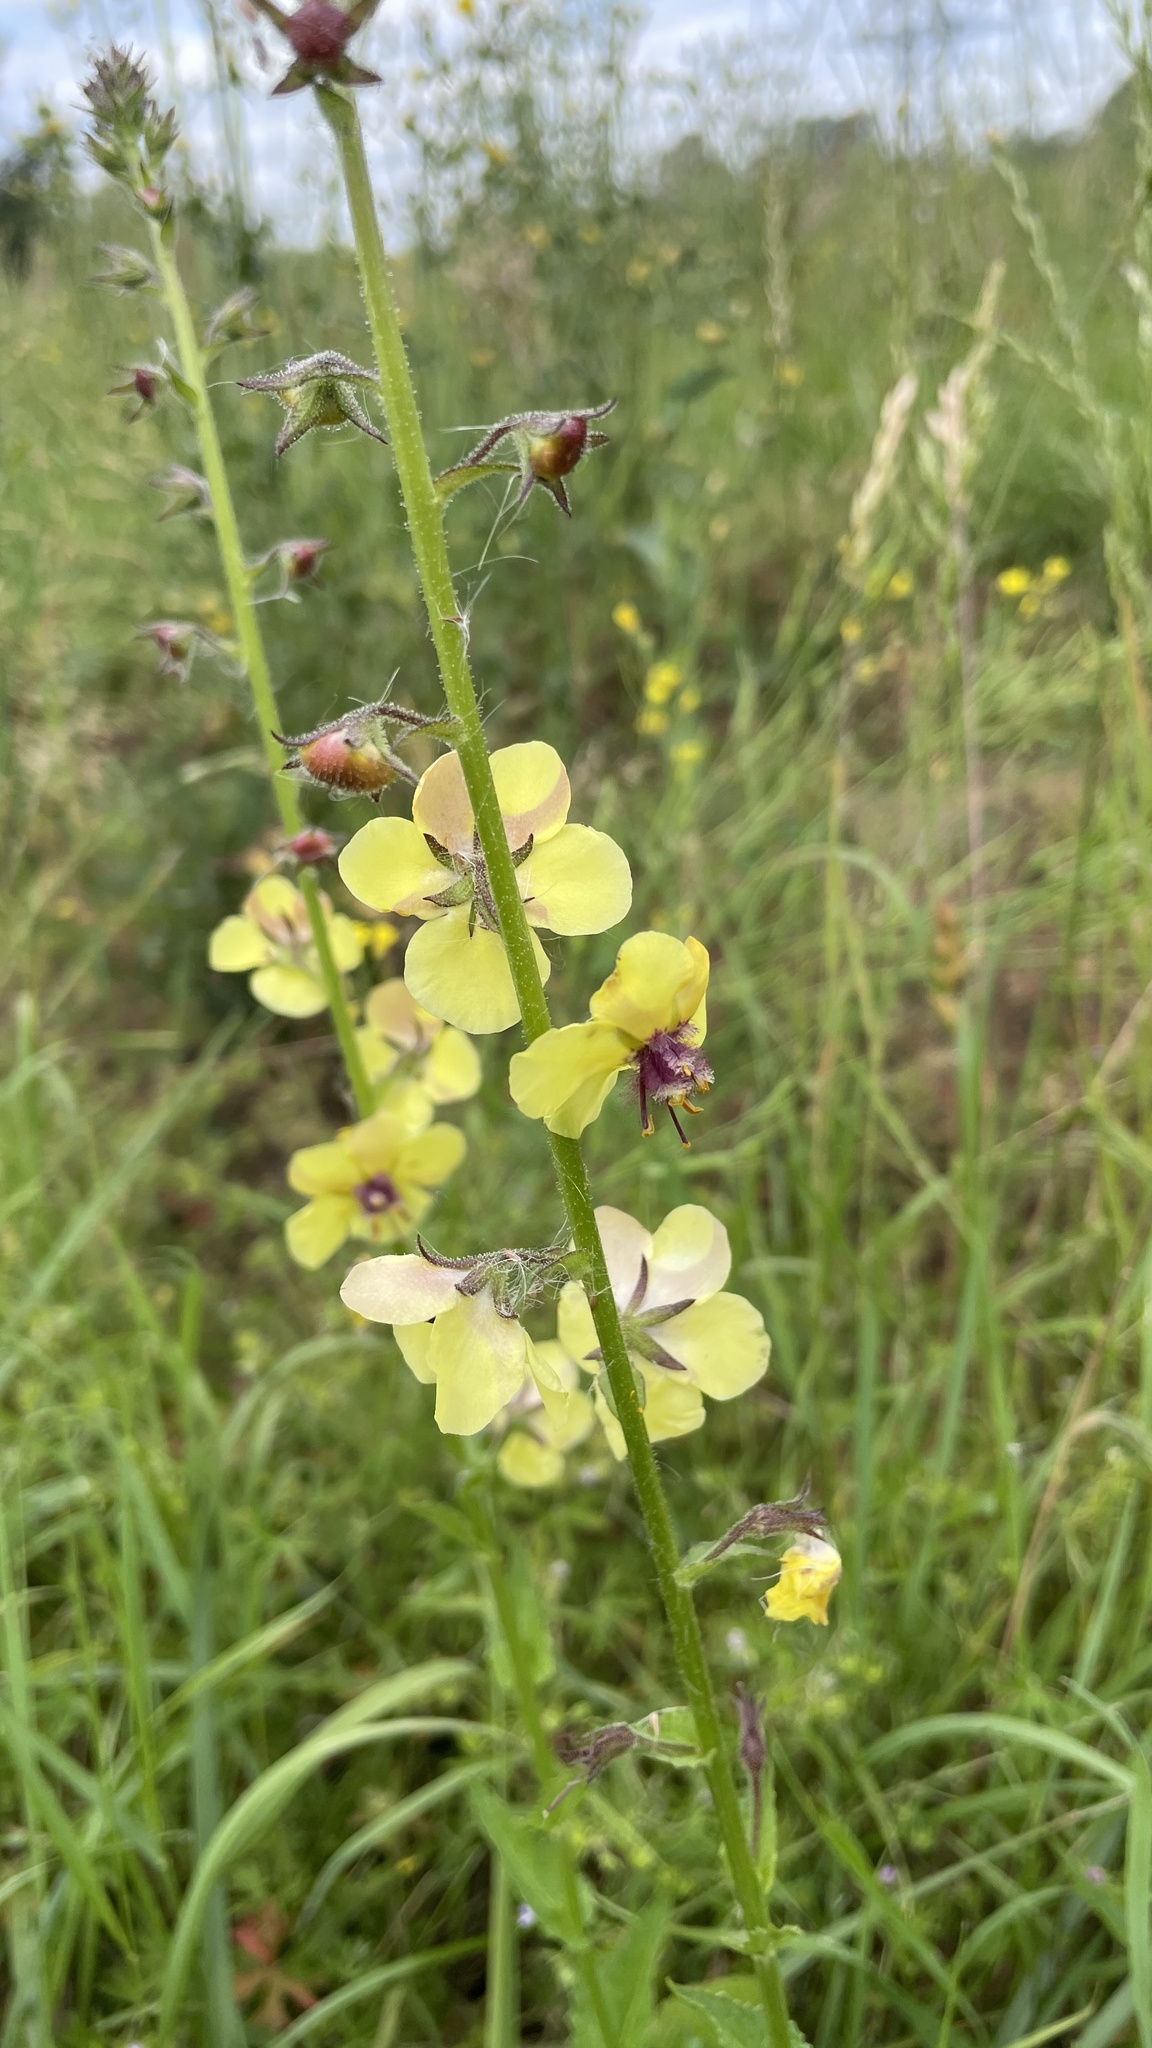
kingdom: Plantae
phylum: Tracheophyta
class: Magnoliopsida
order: Lamiales
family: Scrophulariaceae
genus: Verbascum
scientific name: Verbascum blattaria
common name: Moth mullein
